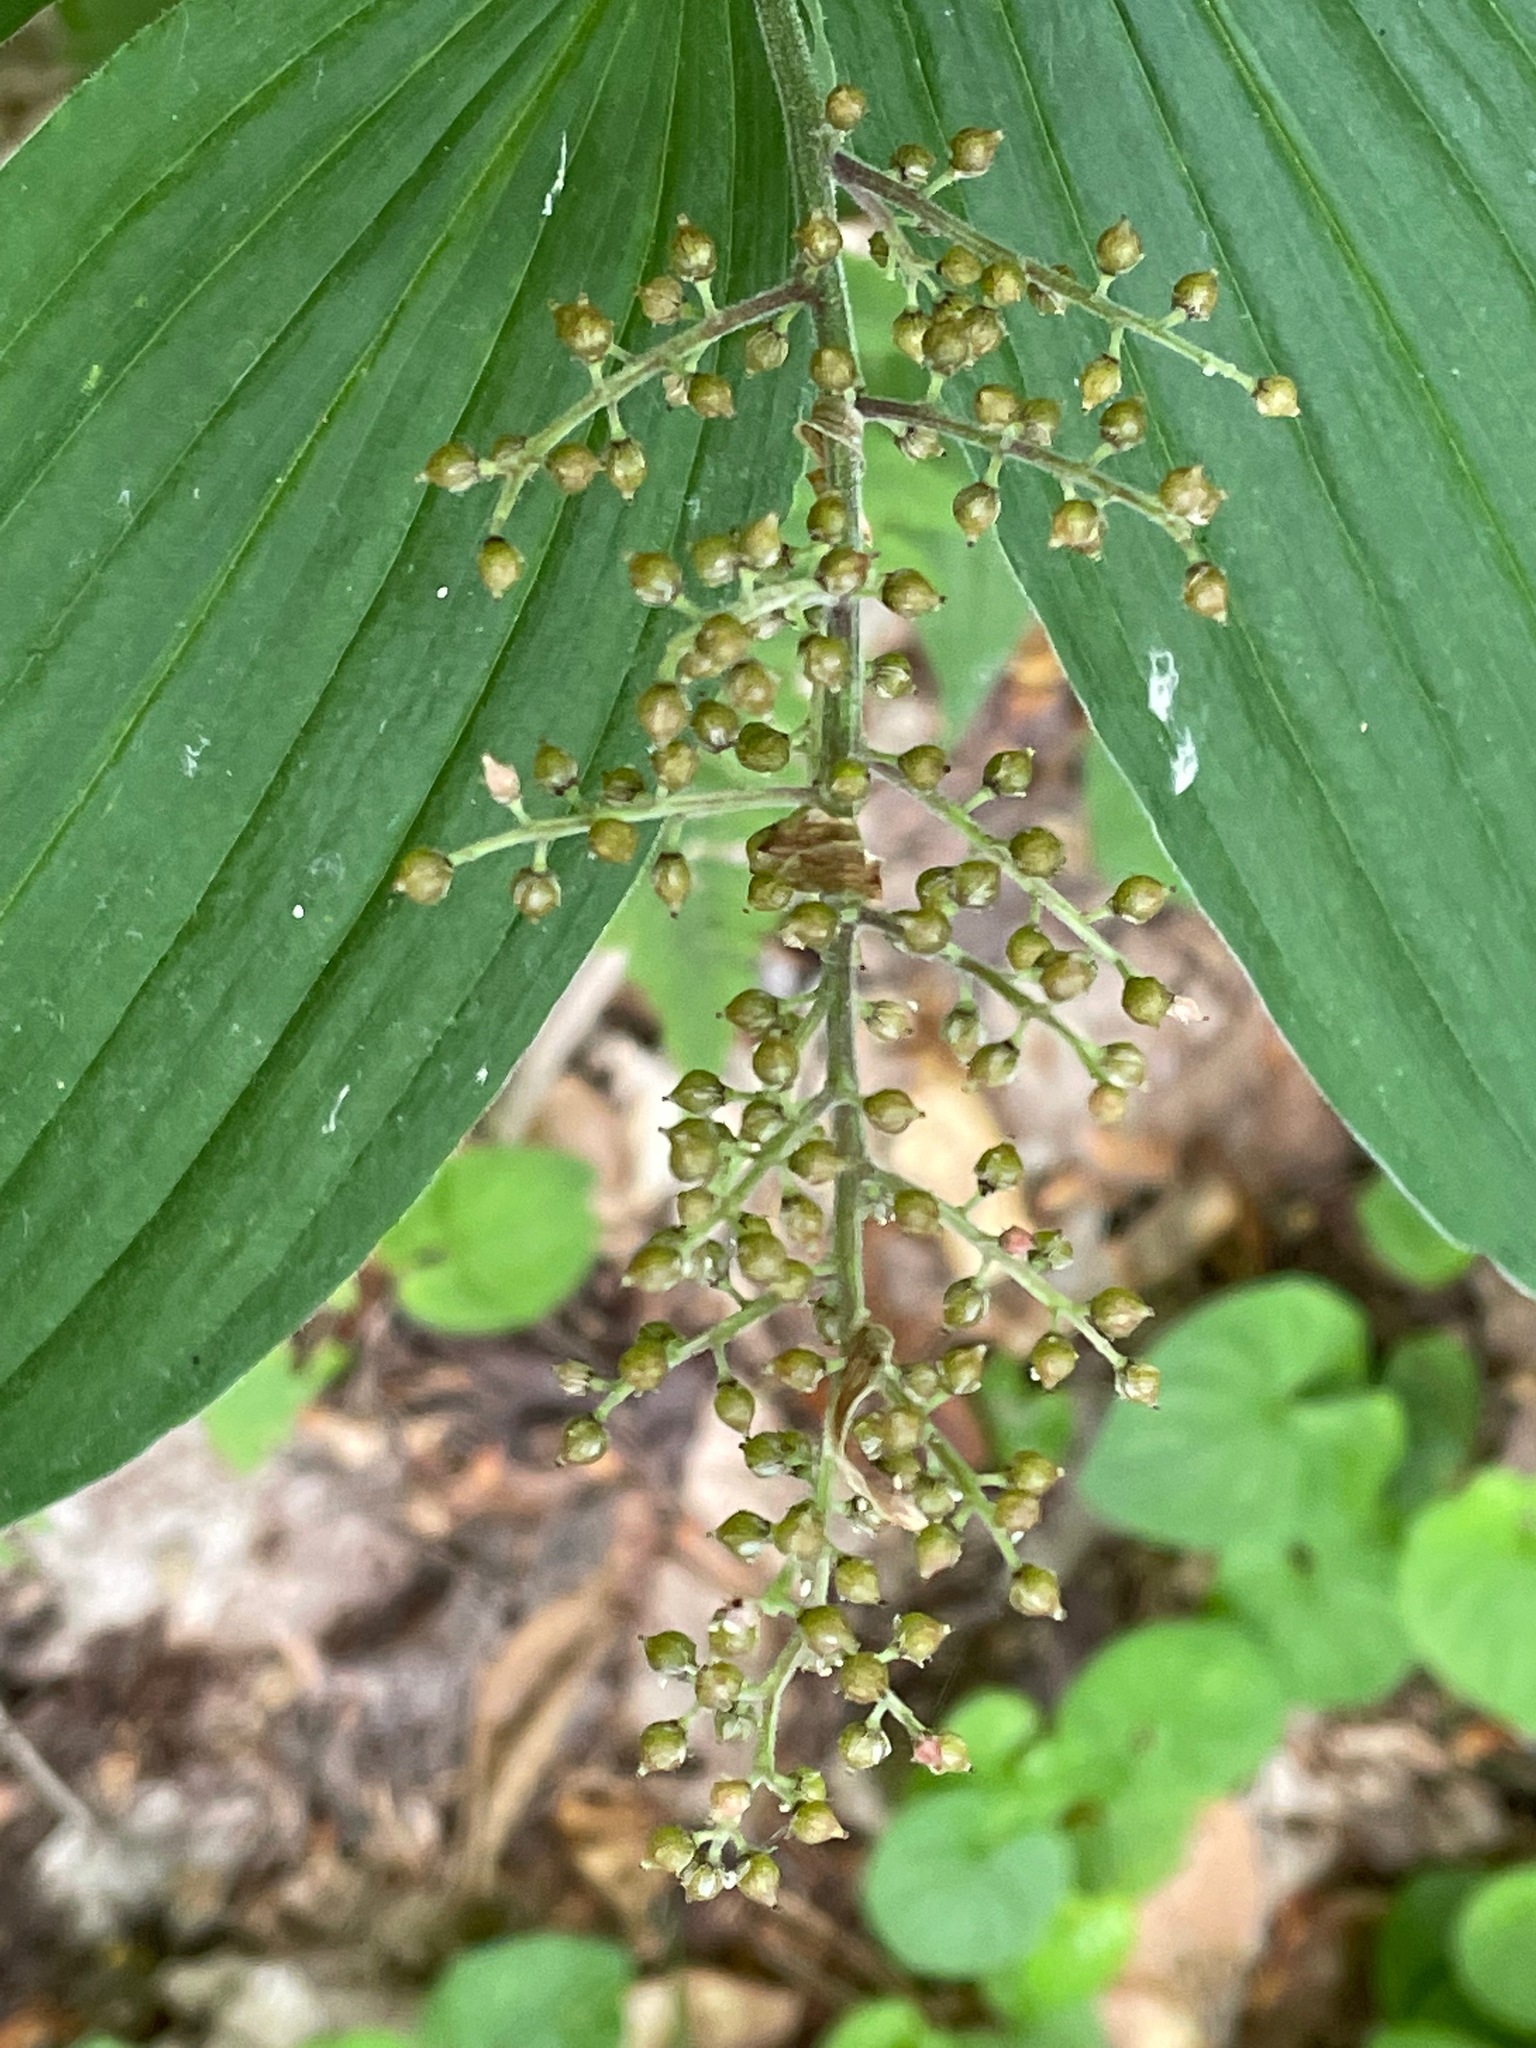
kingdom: Plantae
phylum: Tracheophyta
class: Liliopsida
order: Asparagales
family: Asparagaceae
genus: Maianthemum
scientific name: Maianthemum racemosum
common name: False spikenard
